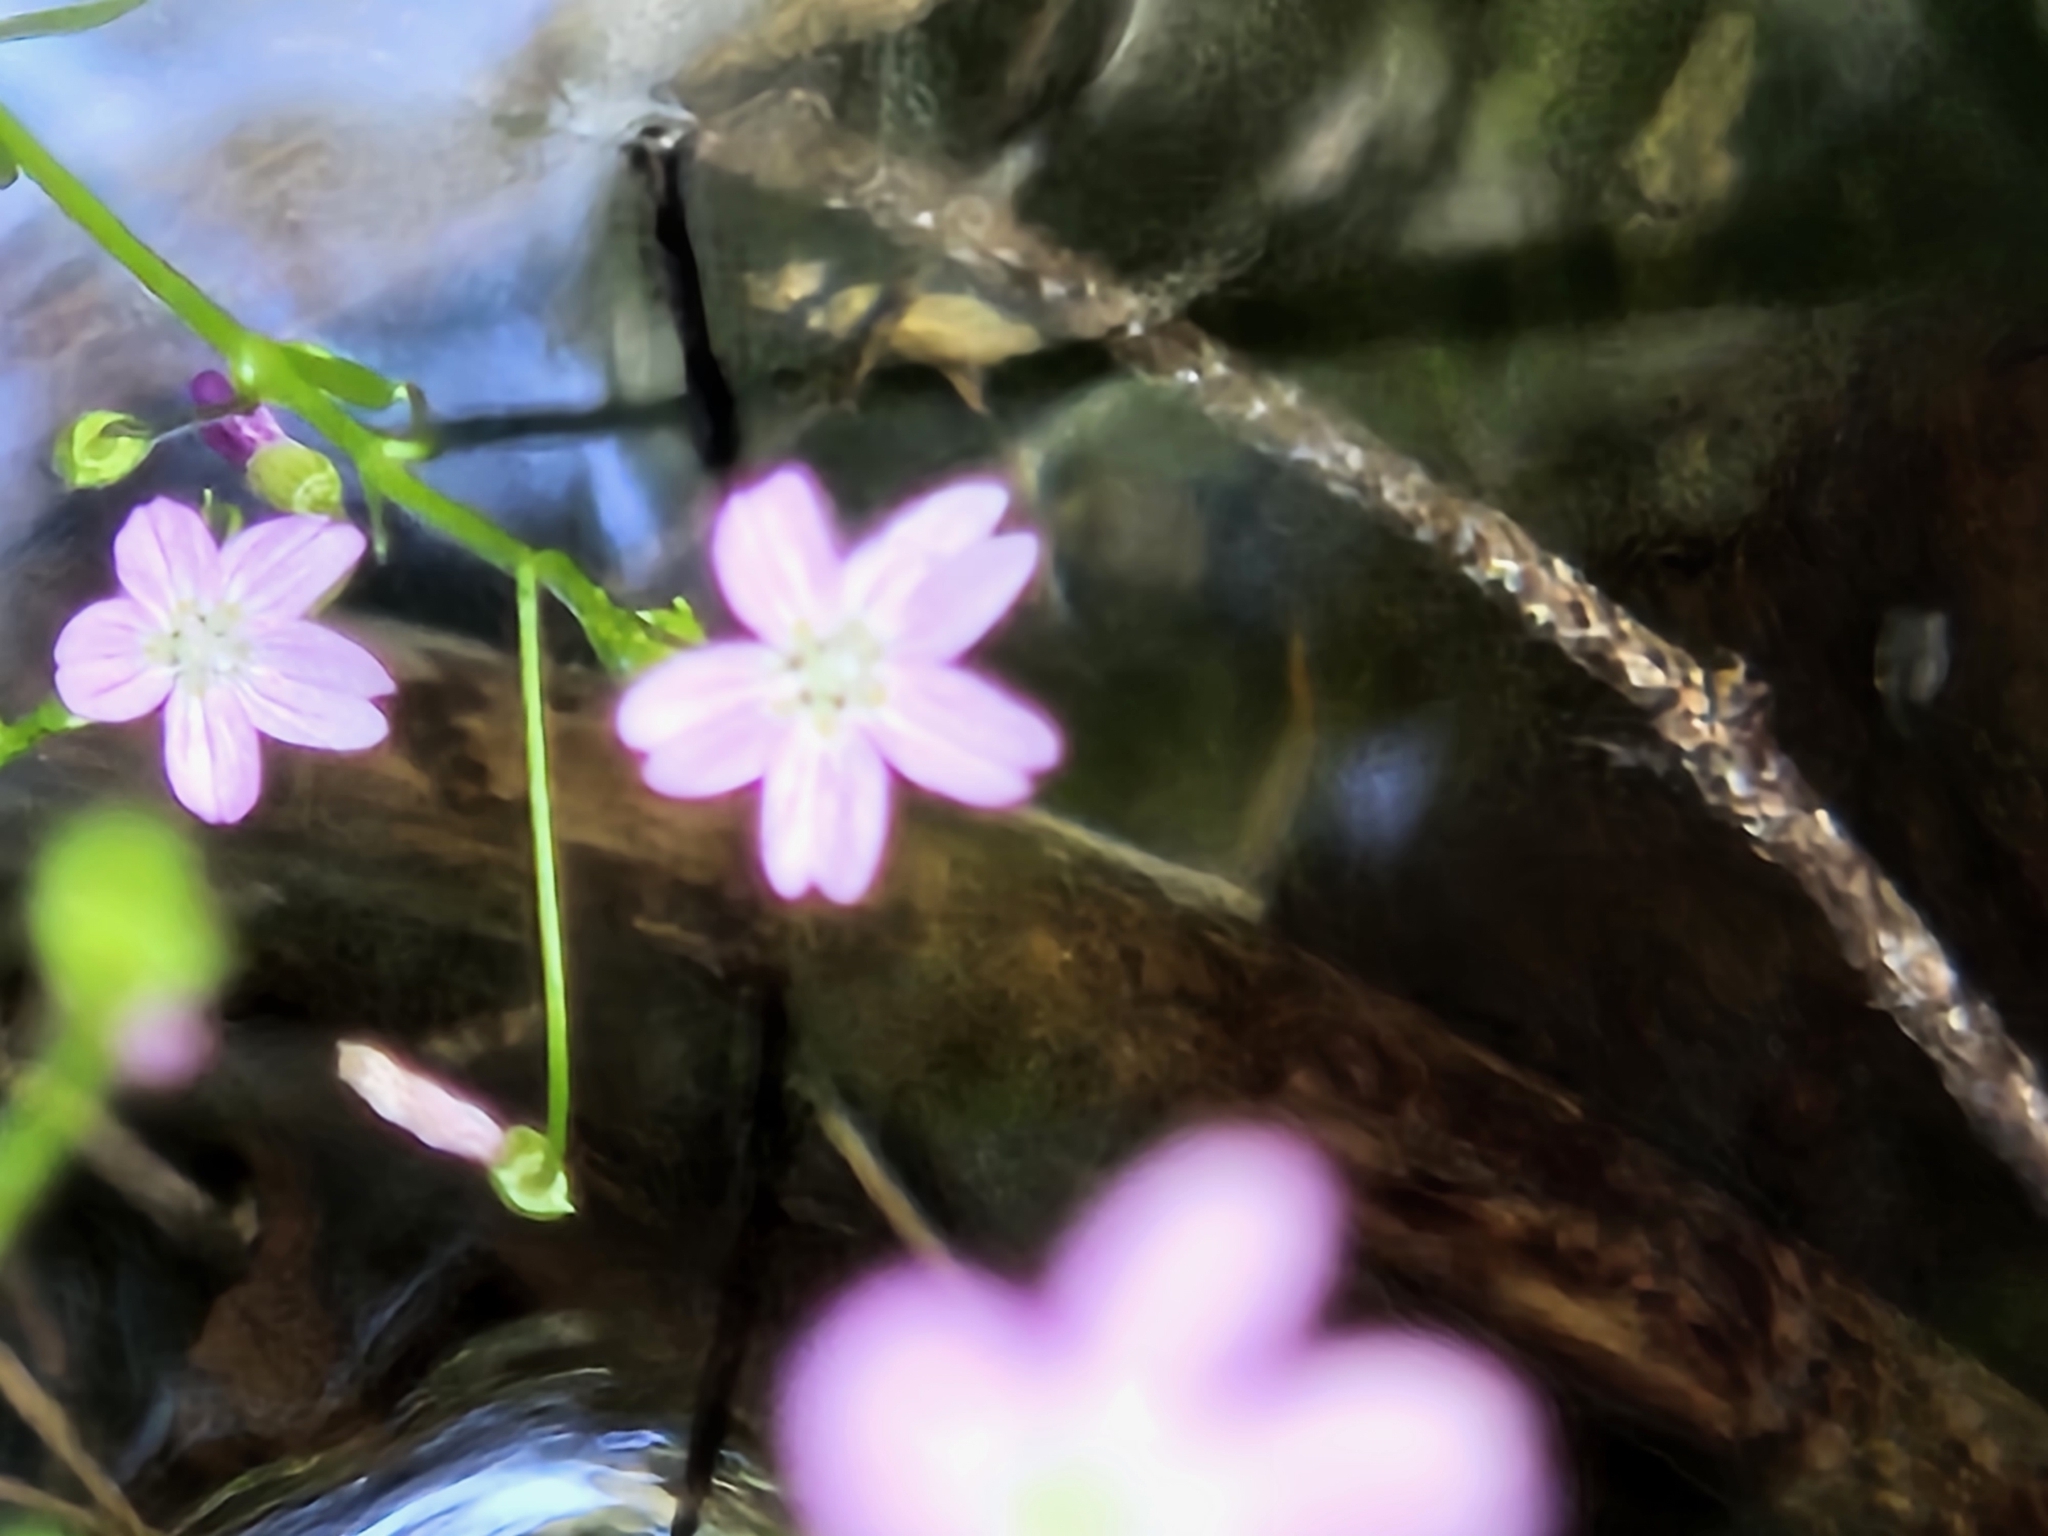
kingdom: Plantae
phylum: Tracheophyta
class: Magnoliopsida
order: Caryophyllales
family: Montiaceae
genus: Claytonia
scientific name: Claytonia sibirica
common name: Pink purslane
